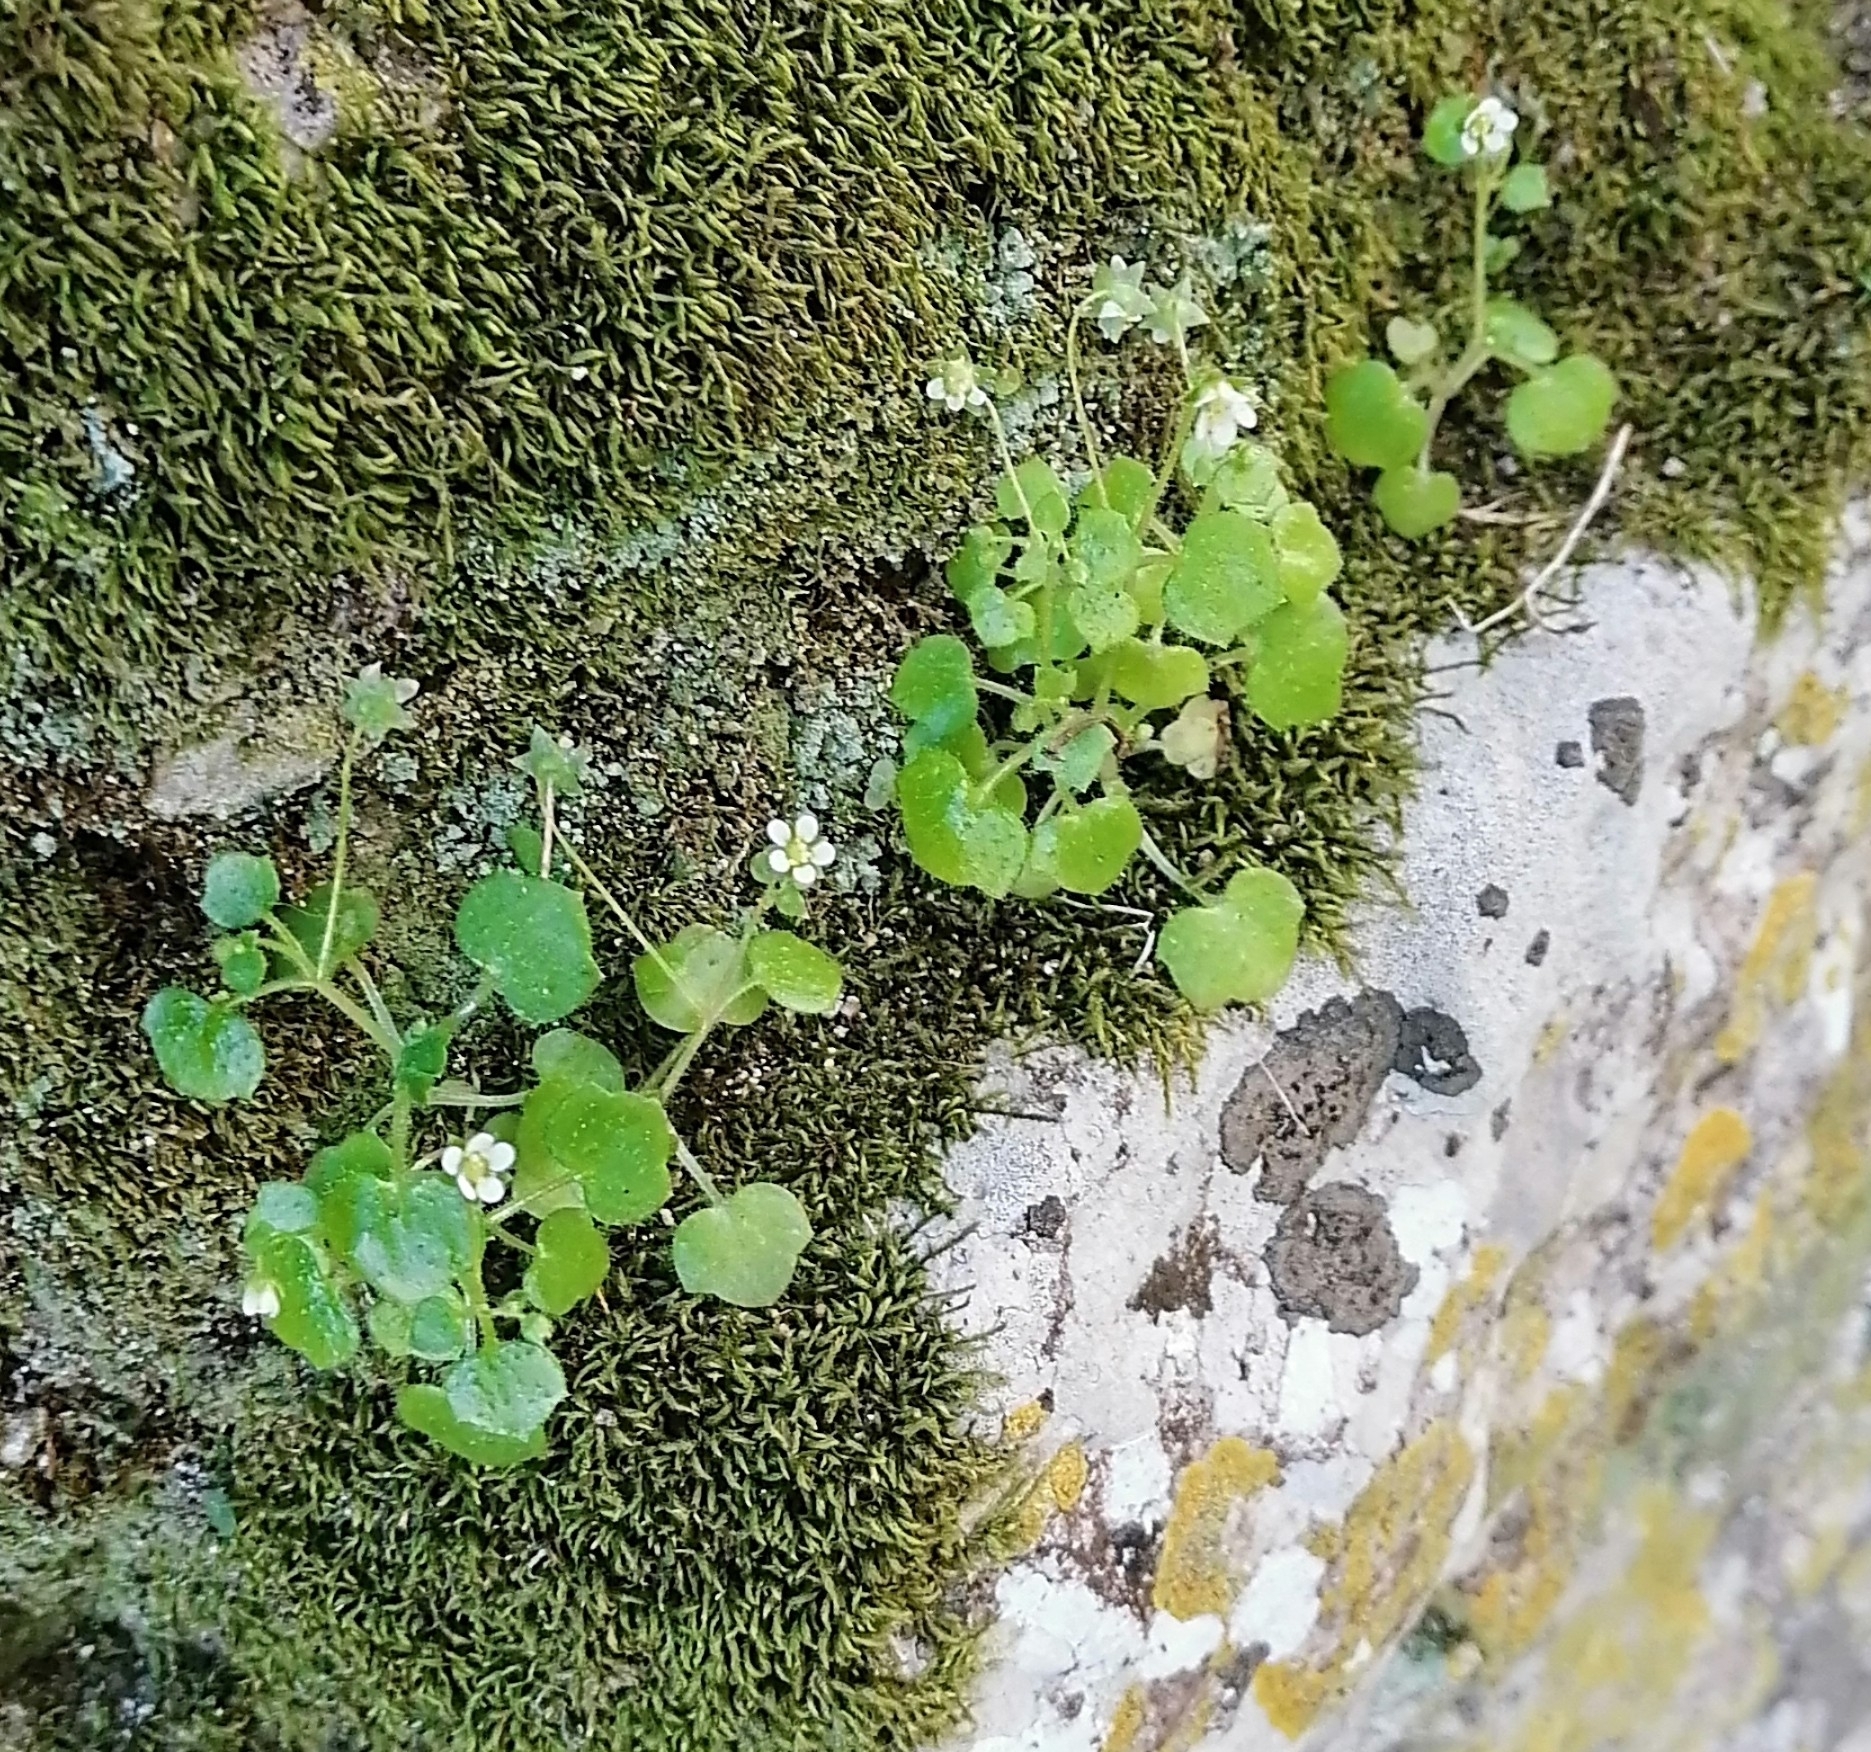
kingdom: Plantae
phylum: Tracheophyta
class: Magnoliopsida
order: Saxifragales
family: Saxifragaceae
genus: Saxifraga
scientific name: Saxifraga hederacea
